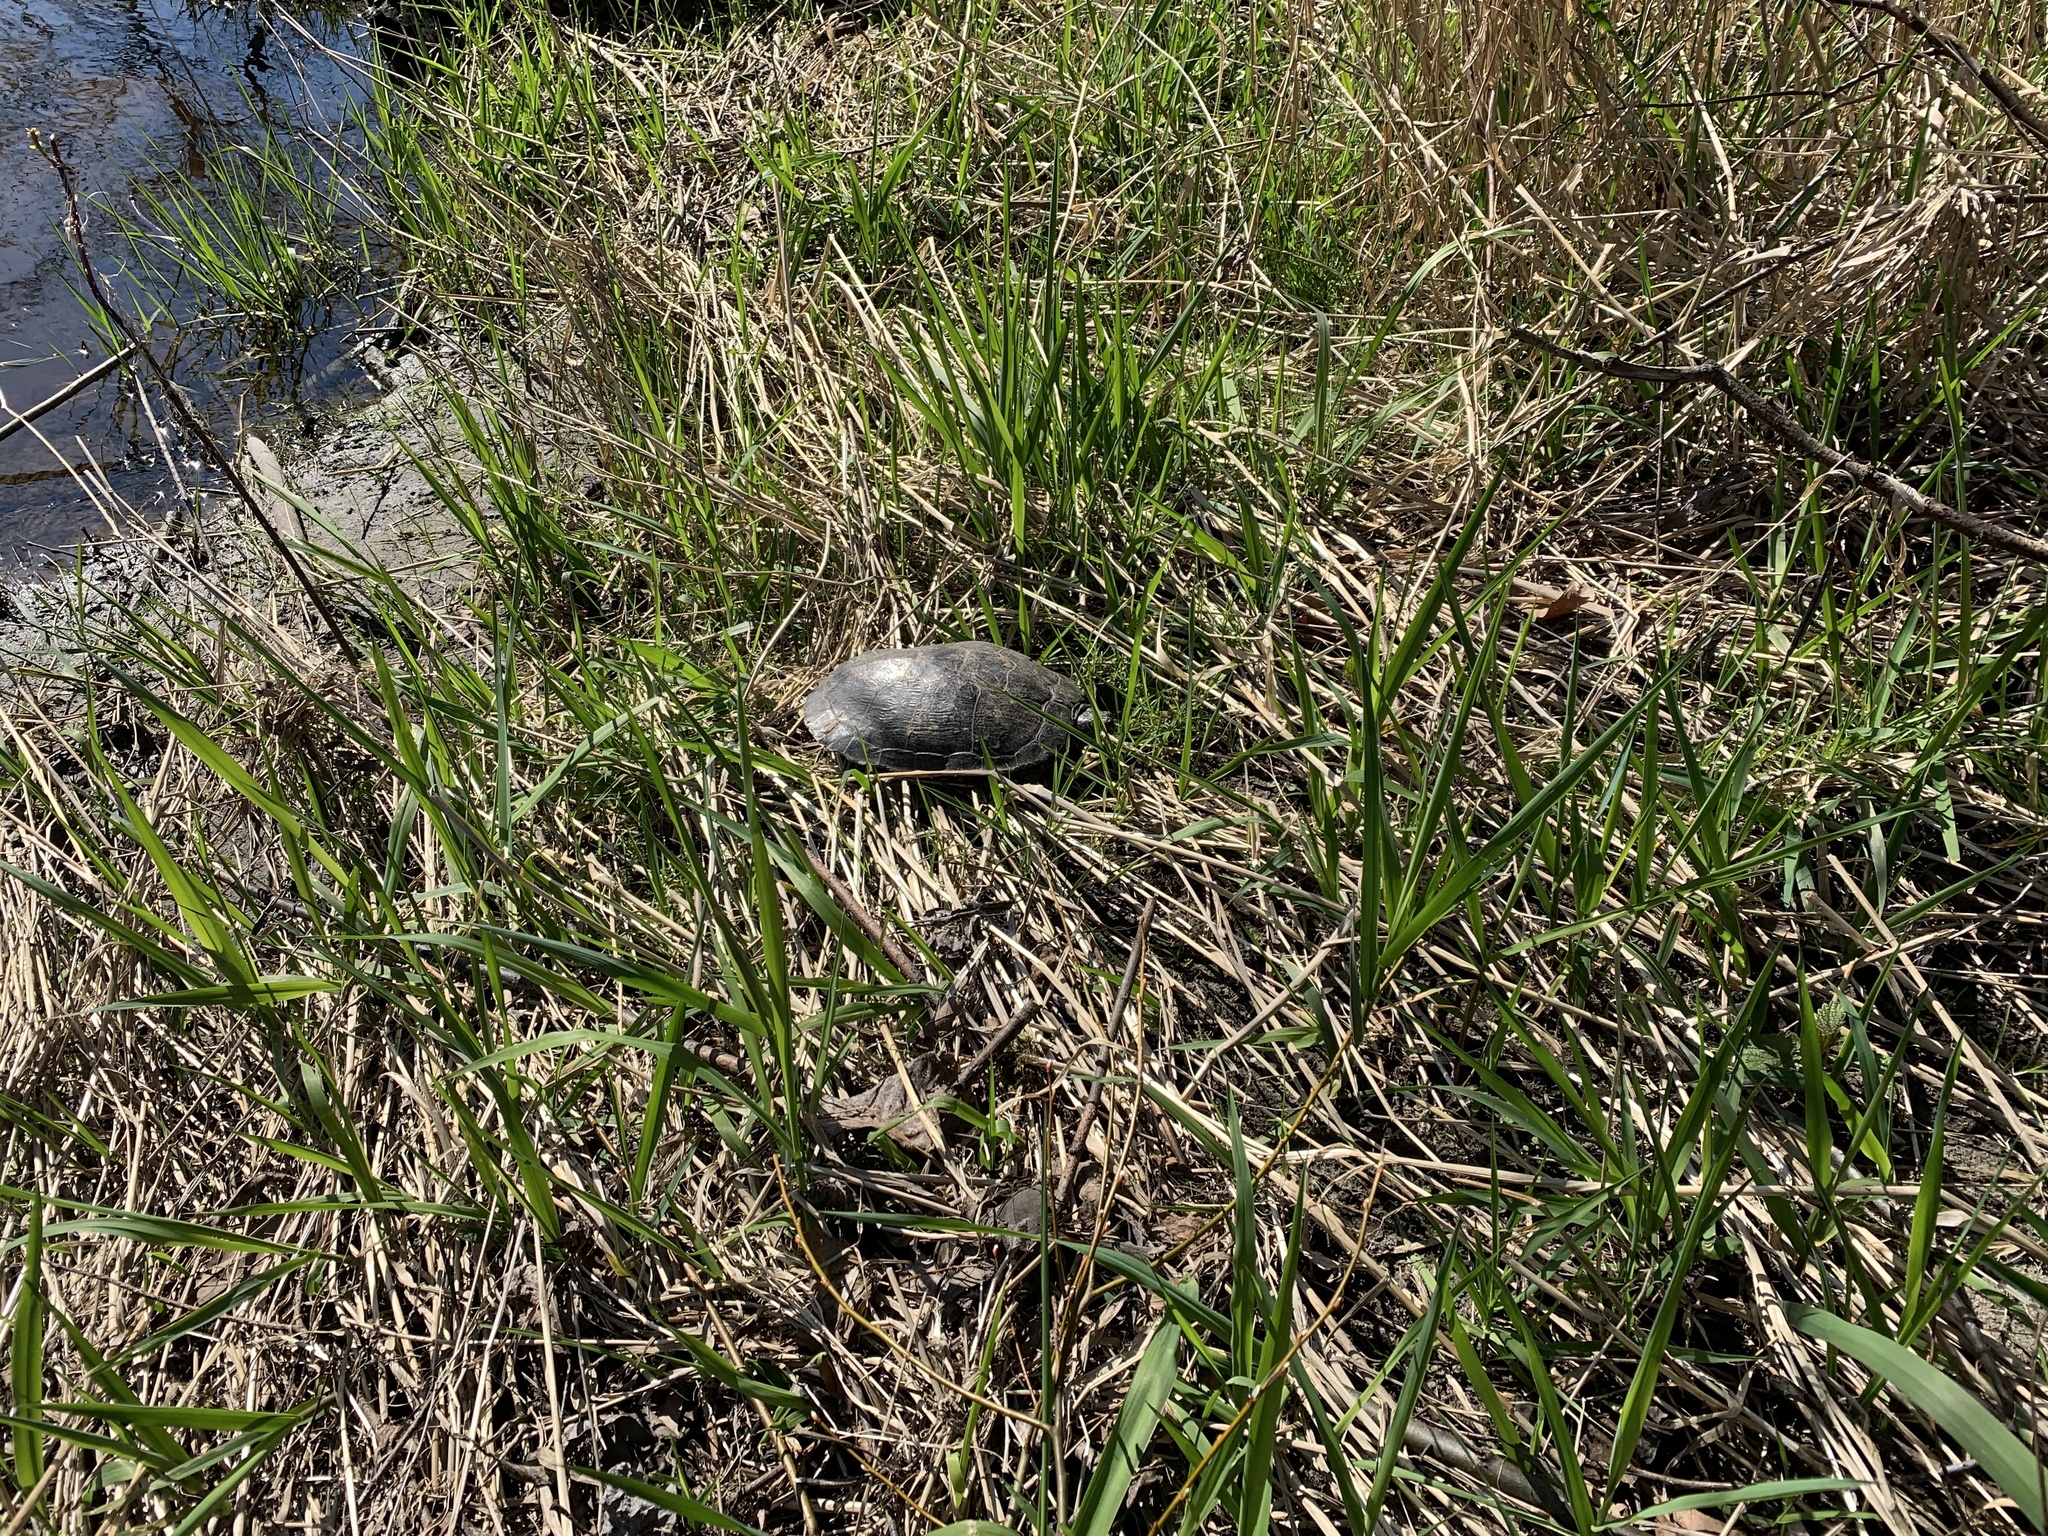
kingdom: Animalia
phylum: Chordata
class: Testudines
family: Emydidae
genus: Trachemys
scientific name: Trachemys scripta
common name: Slider
